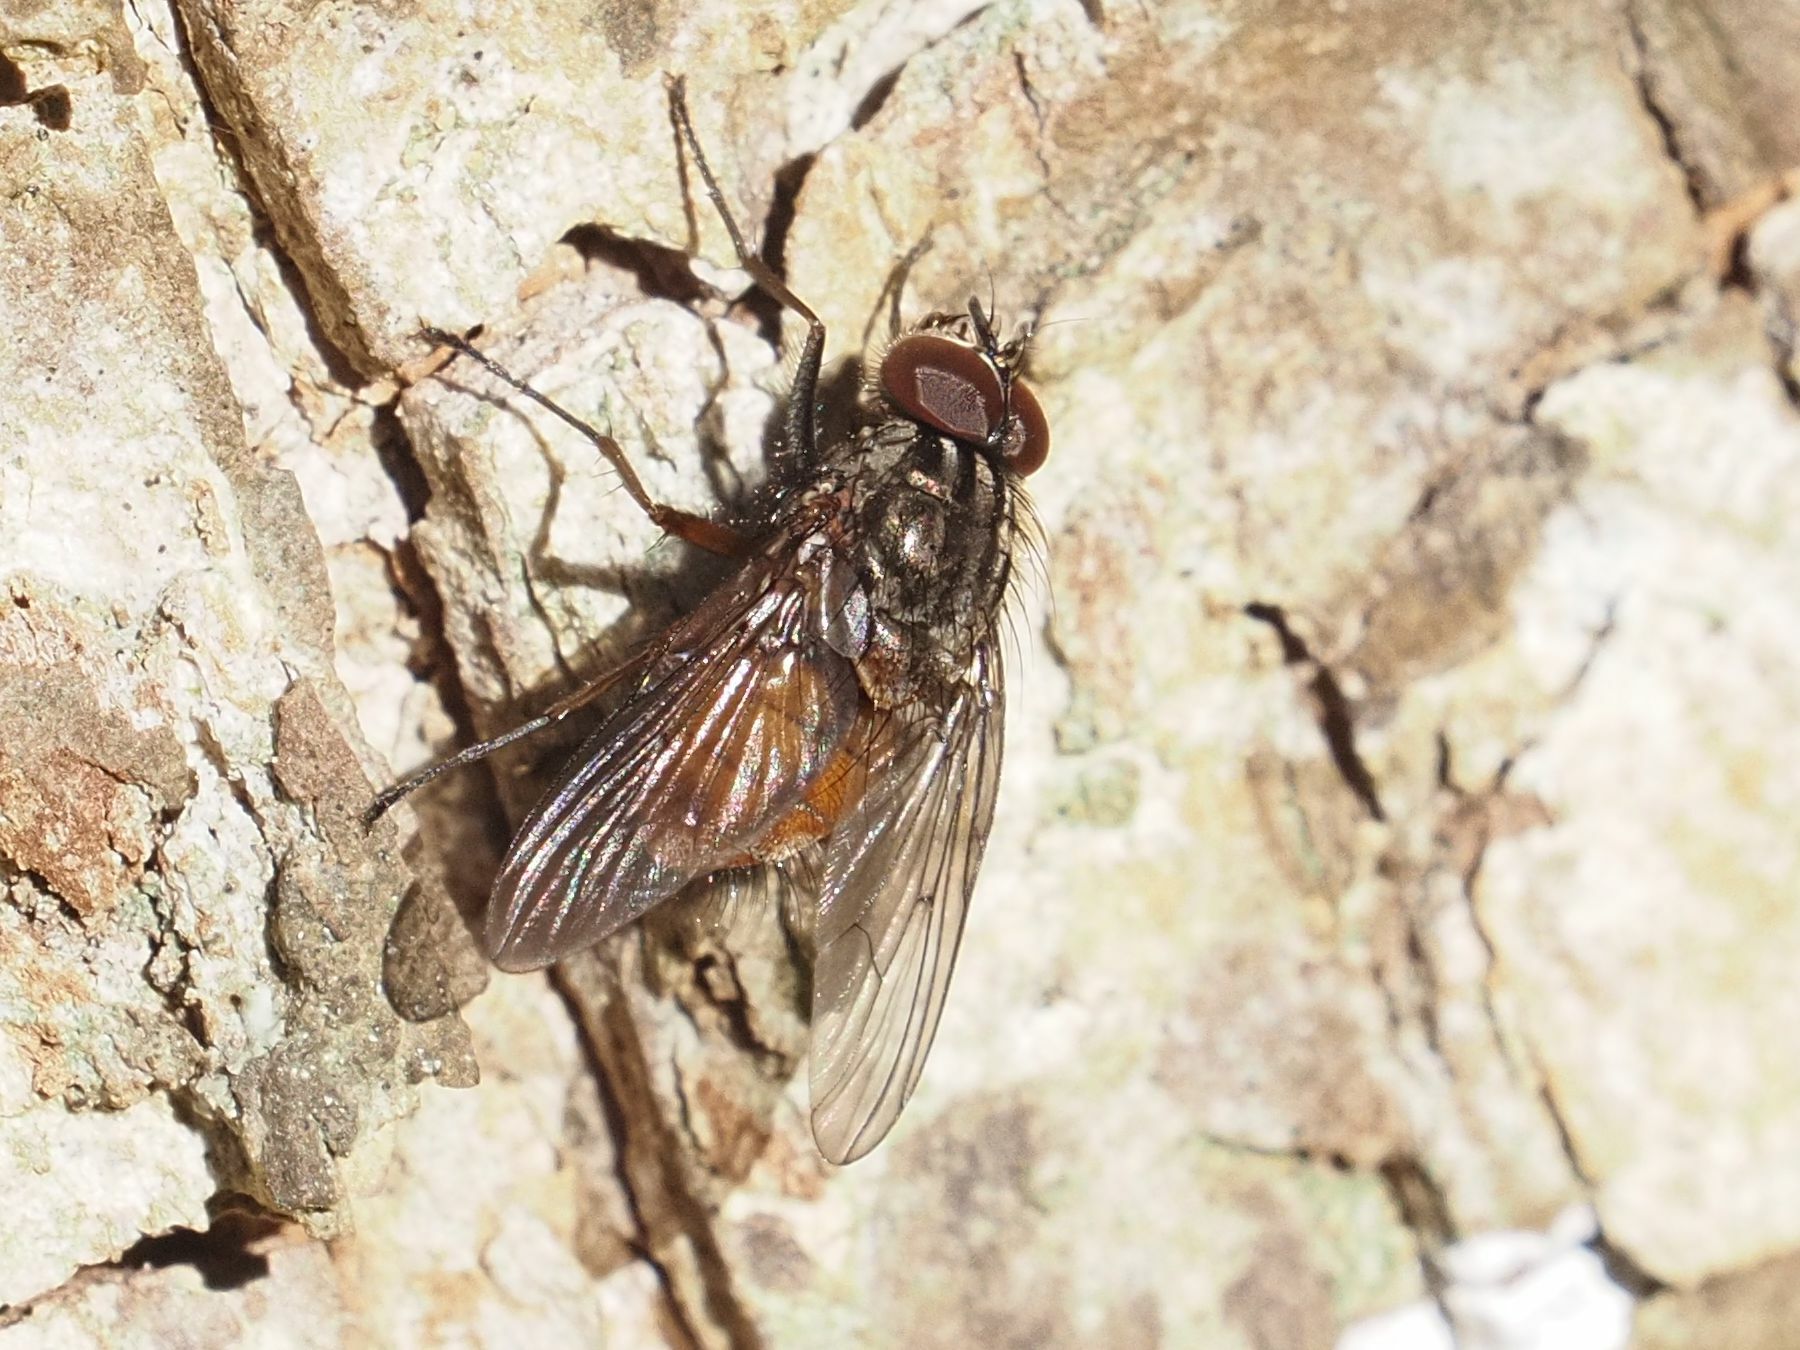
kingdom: Animalia
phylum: Arthropoda
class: Insecta
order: Diptera
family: Muscidae
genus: Phaonia
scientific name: Phaonia subventa
